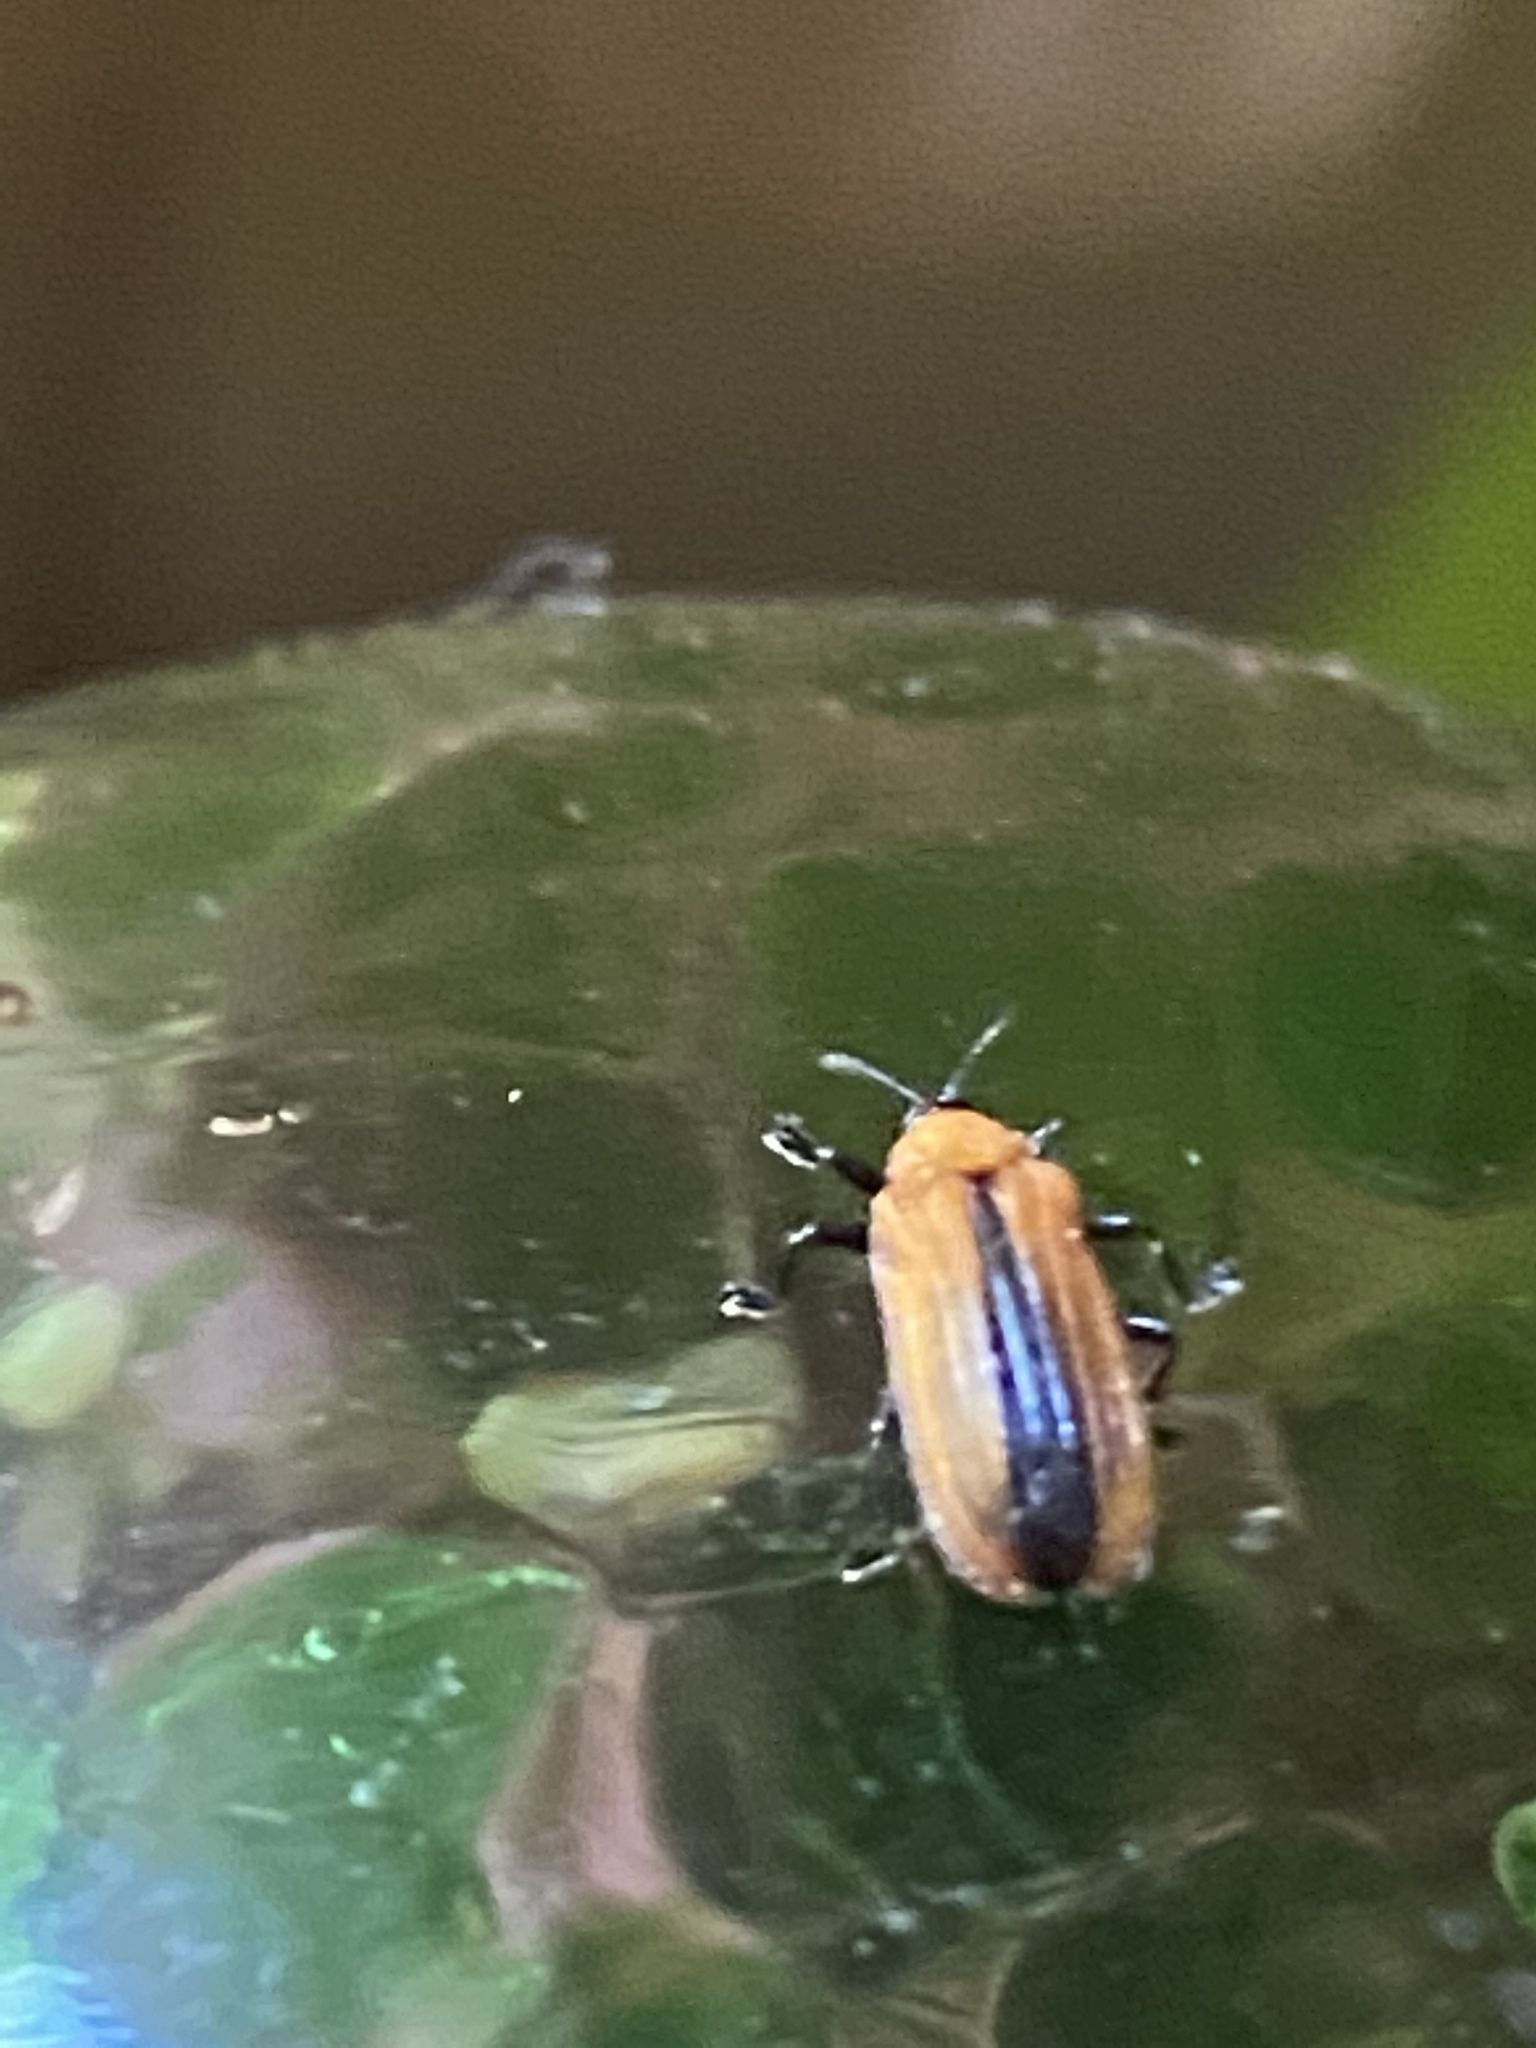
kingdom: Animalia
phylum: Arthropoda
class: Insecta
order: Coleoptera
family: Chrysomelidae
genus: Odontota
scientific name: Odontota dorsalis
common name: Locust leaf-miner beetle
